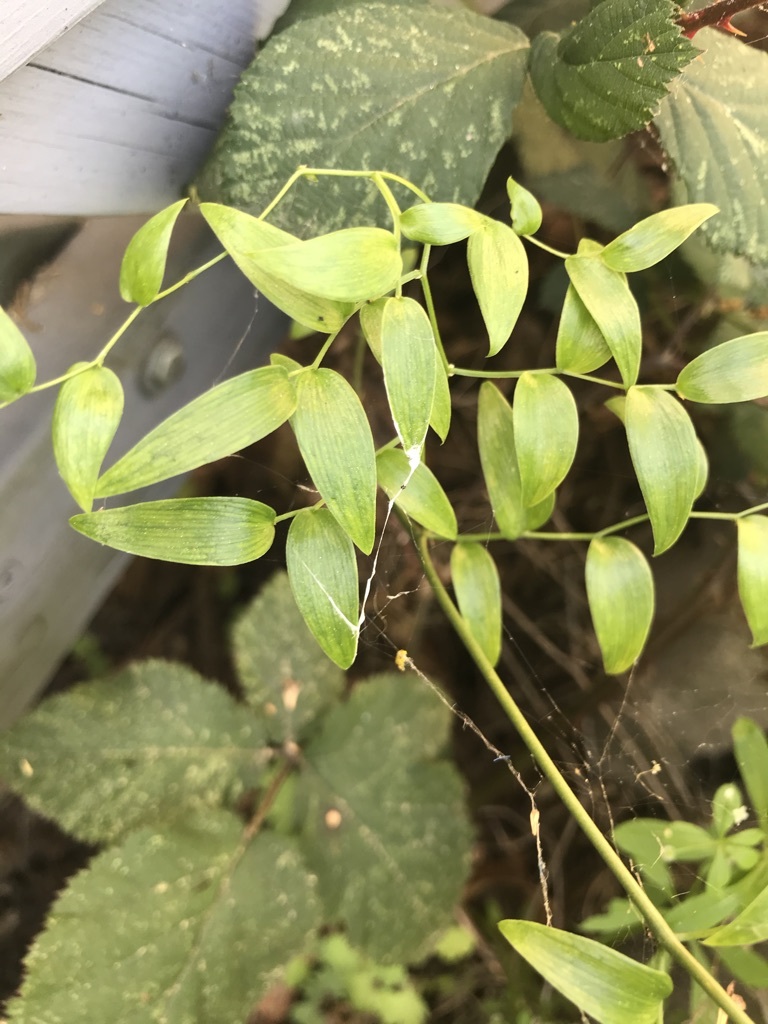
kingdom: Plantae
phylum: Tracheophyta
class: Liliopsida
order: Asparagales
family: Asparagaceae
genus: Asparagus
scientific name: Asparagus asparagoides
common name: African asparagus fern
